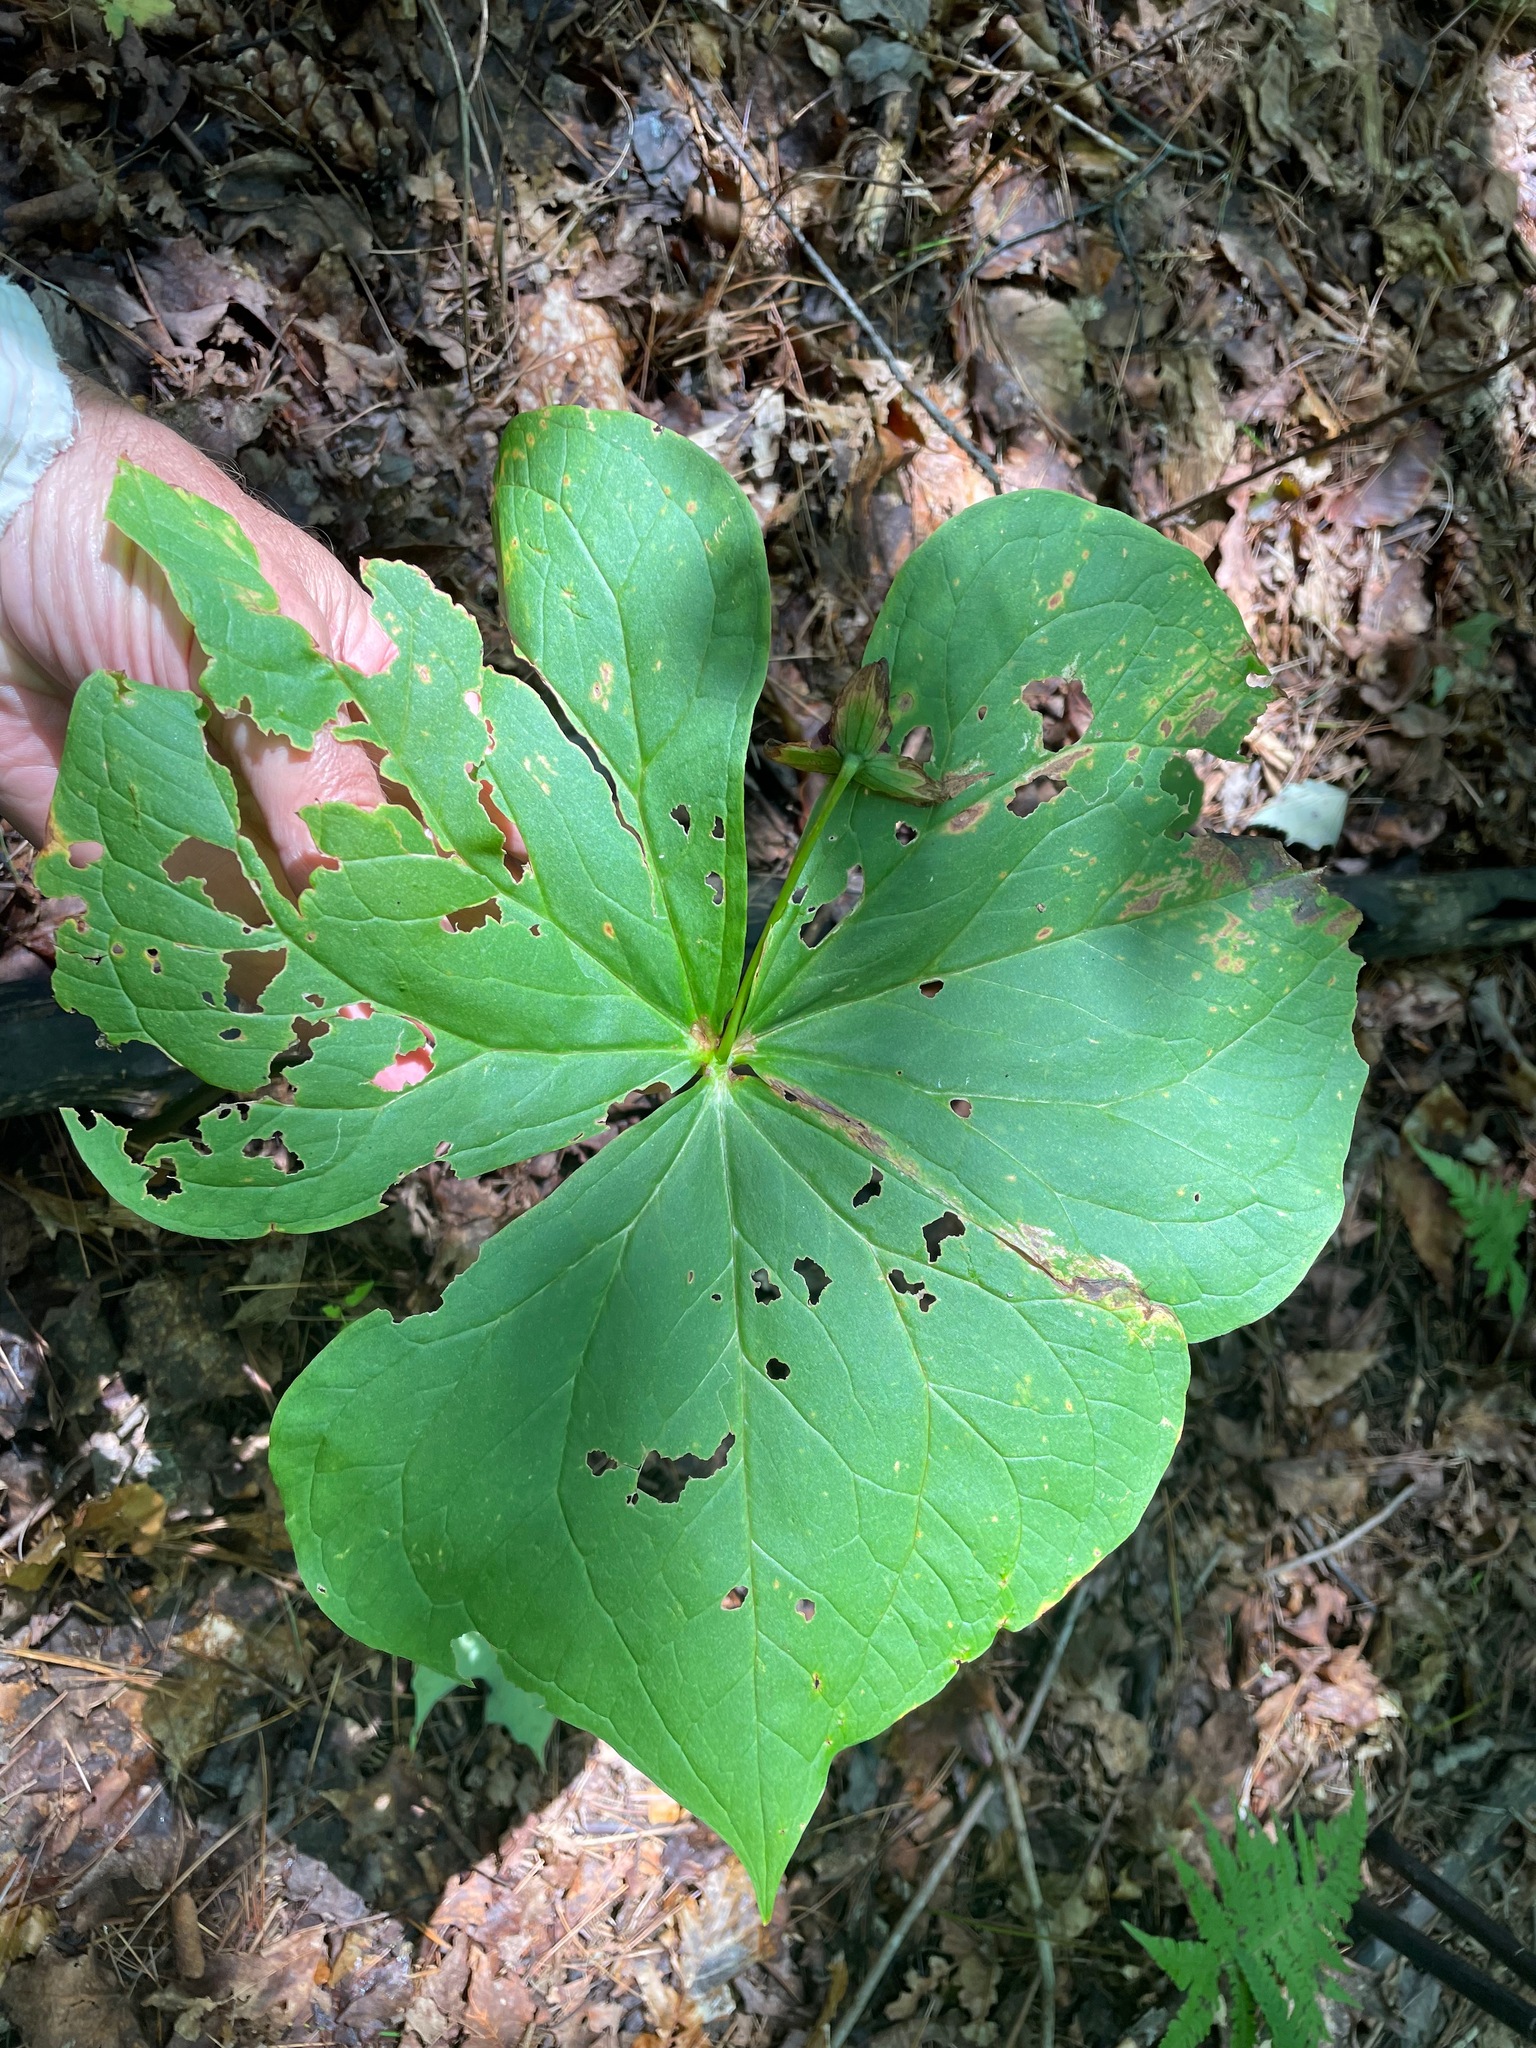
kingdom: Plantae
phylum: Tracheophyta
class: Liliopsida
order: Liliales
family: Melanthiaceae
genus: Trillium
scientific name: Trillium erectum
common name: Purple trillium
